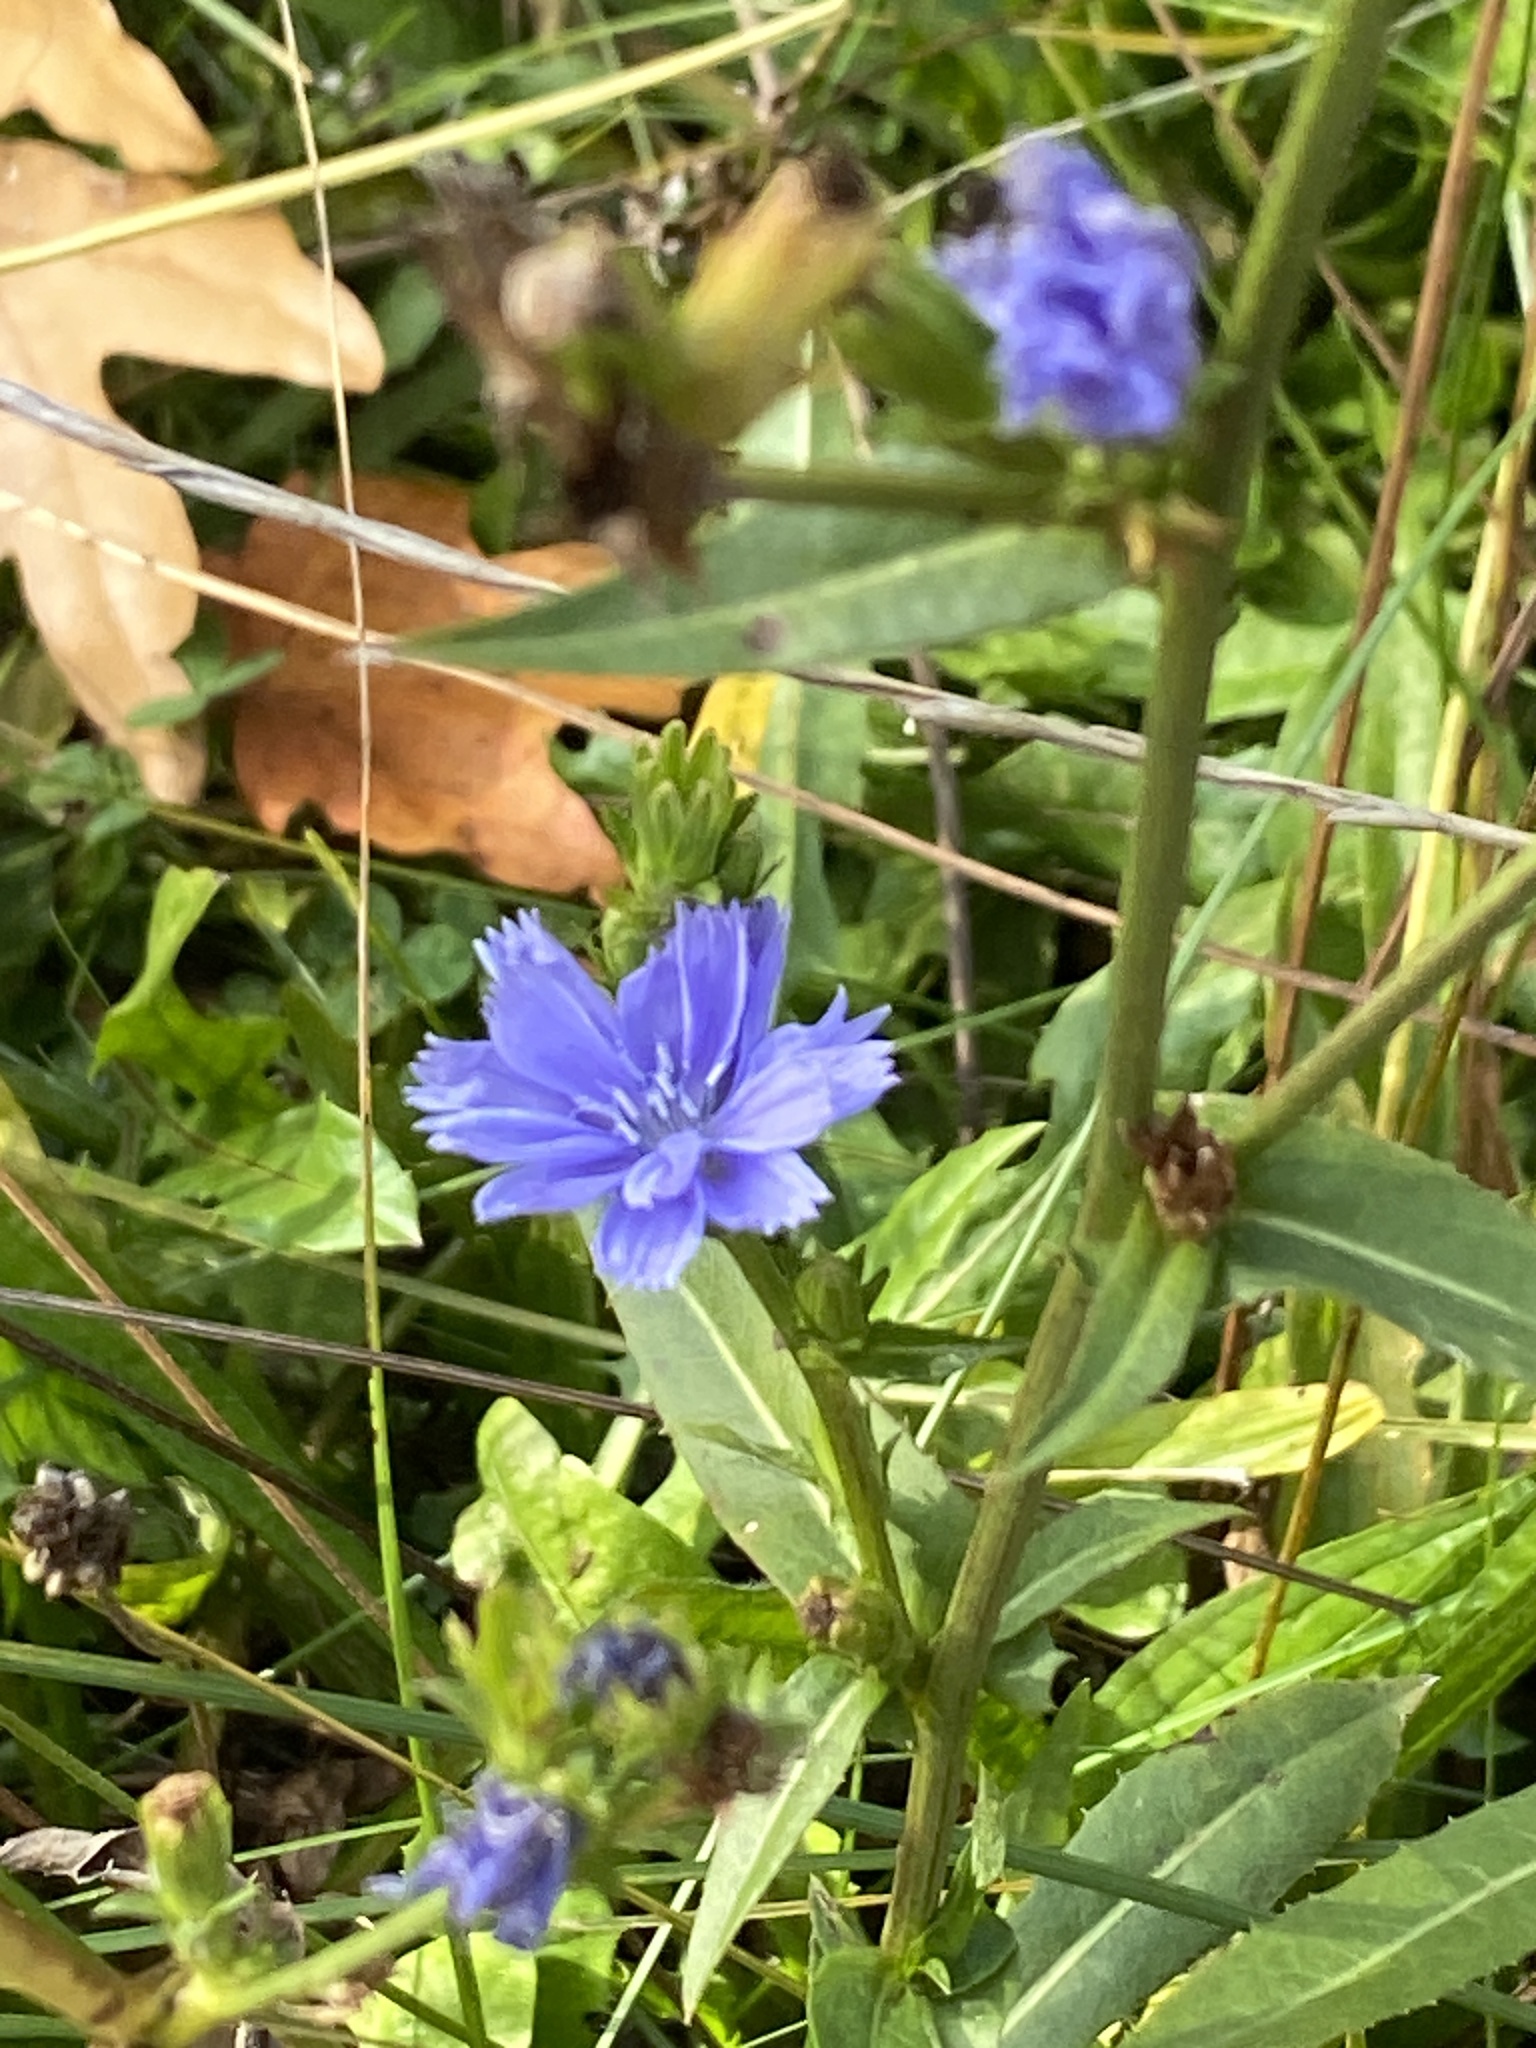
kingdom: Plantae
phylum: Tracheophyta
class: Magnoliopsida
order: Asterales
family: Asteraceae
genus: Cichorium
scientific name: Cichorium intybus
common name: Chicory
